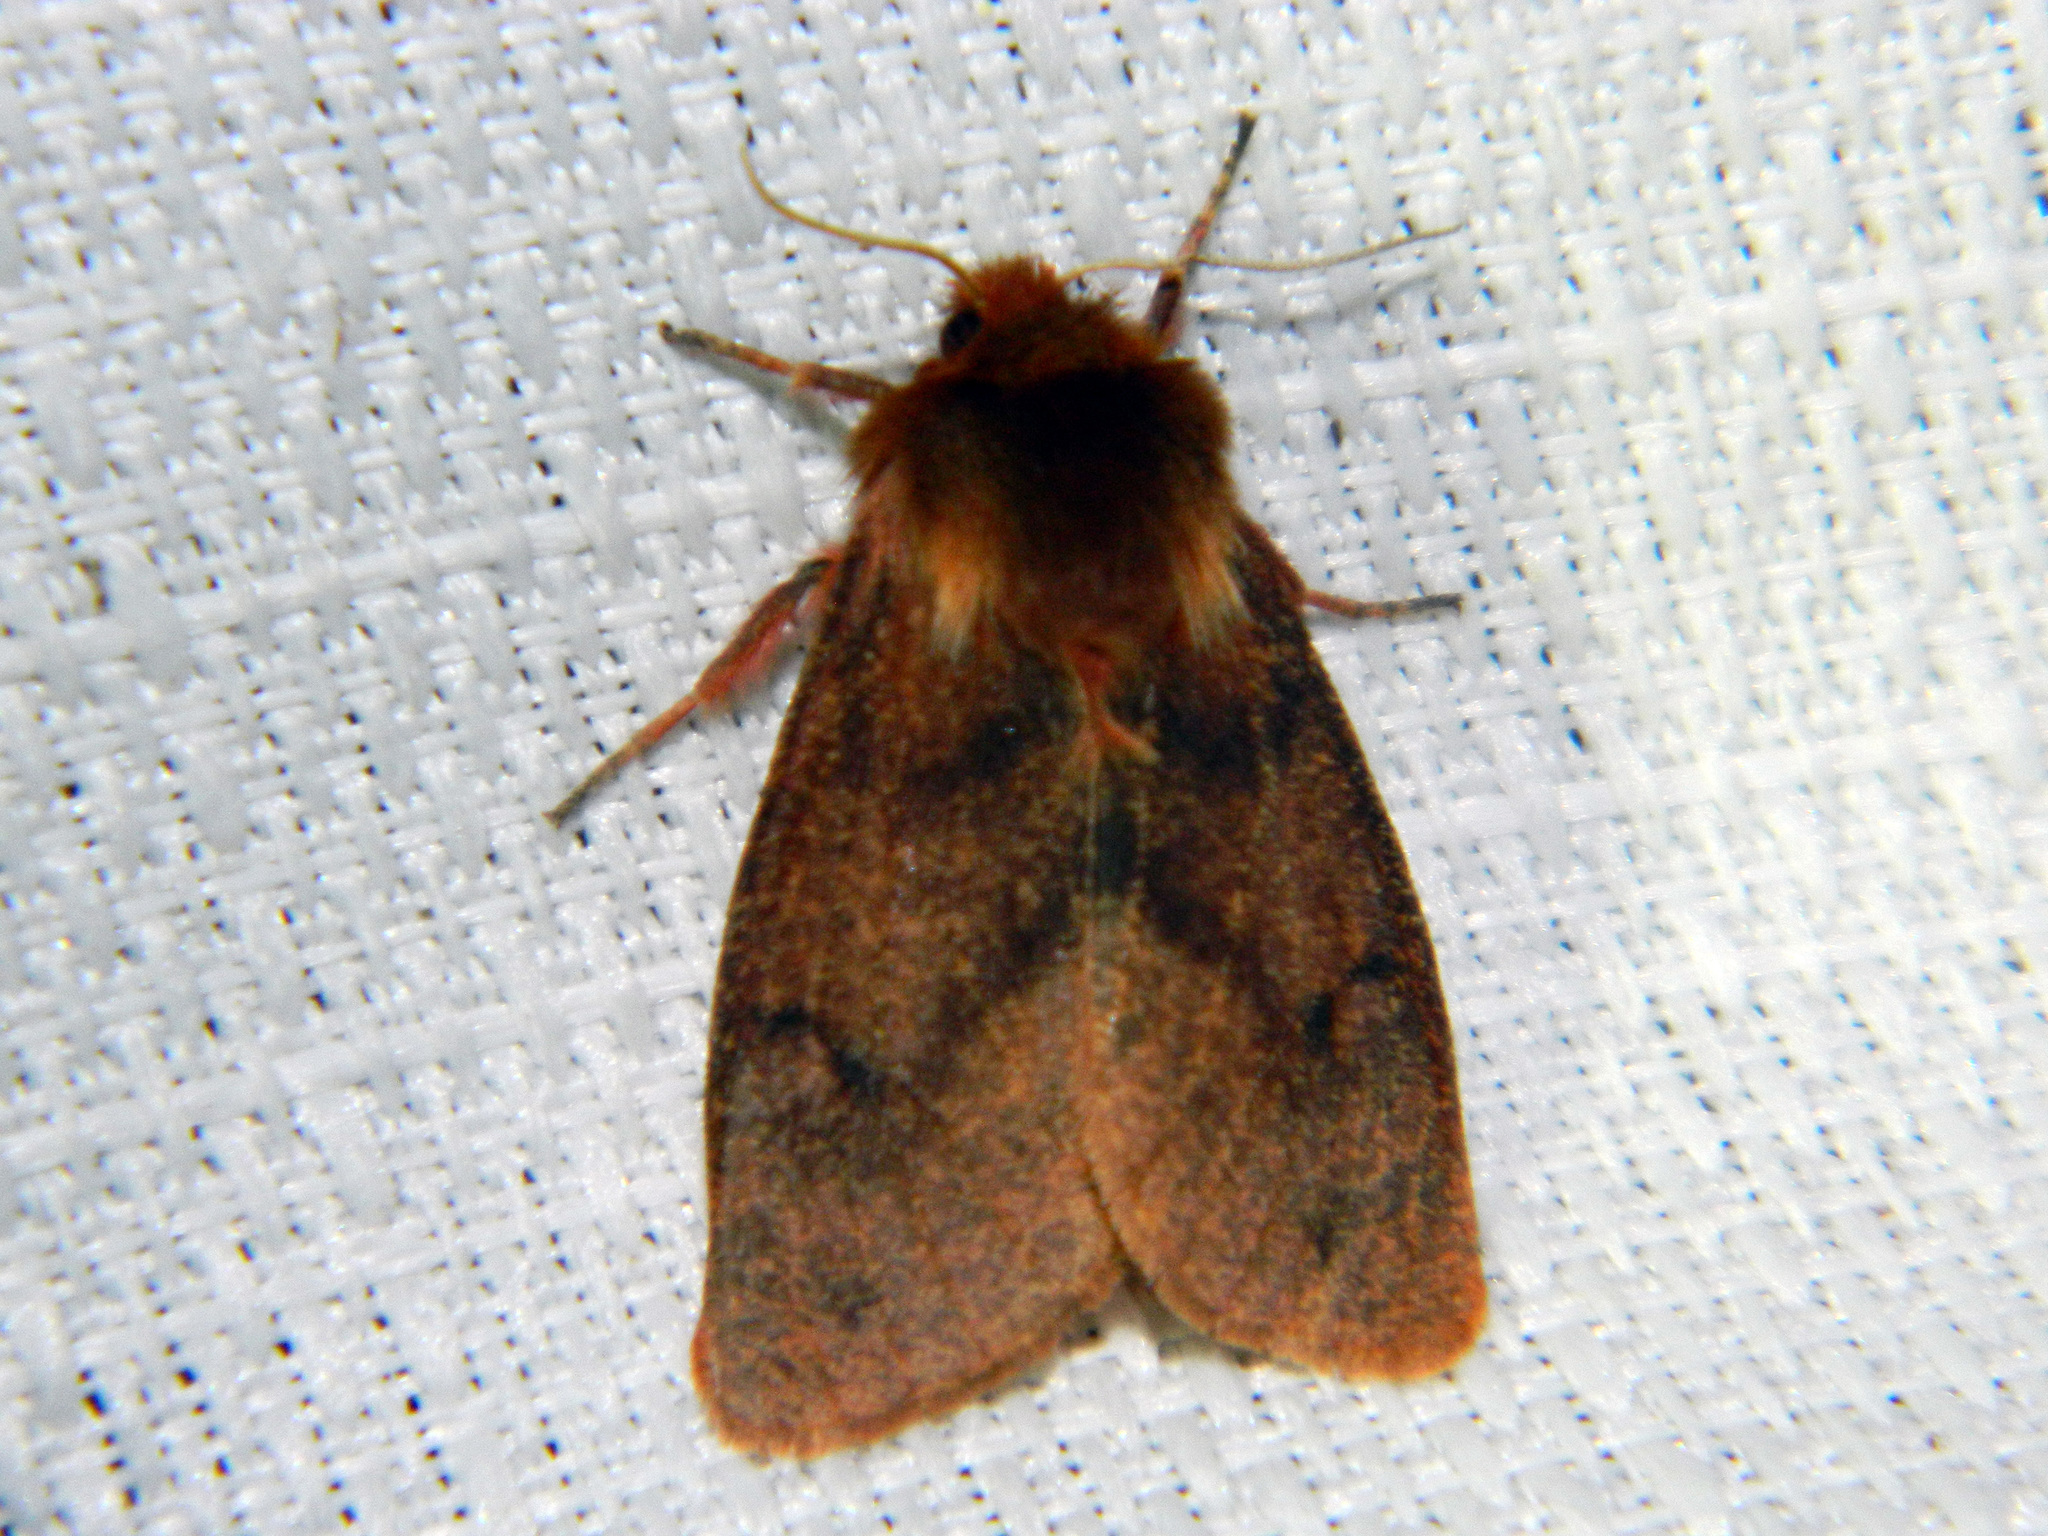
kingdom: Animalia
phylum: Arthropoda
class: Insecta
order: Lepidoptera
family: Erebidae
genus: Phragmatobia
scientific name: Phragmatobia assimilans
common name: Large ruby tiger moth
